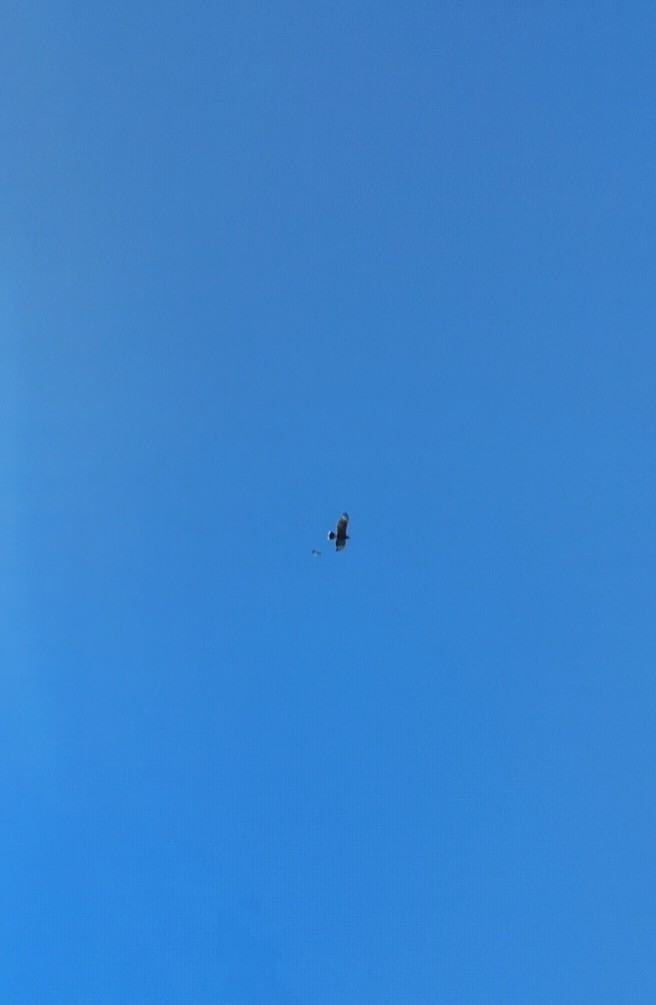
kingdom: Animalia
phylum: Chordata
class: Aves
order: Accipitriformes
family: Accipitridae
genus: Parabuteo
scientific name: Parabuteo unicinctus
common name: Harris's hawk
